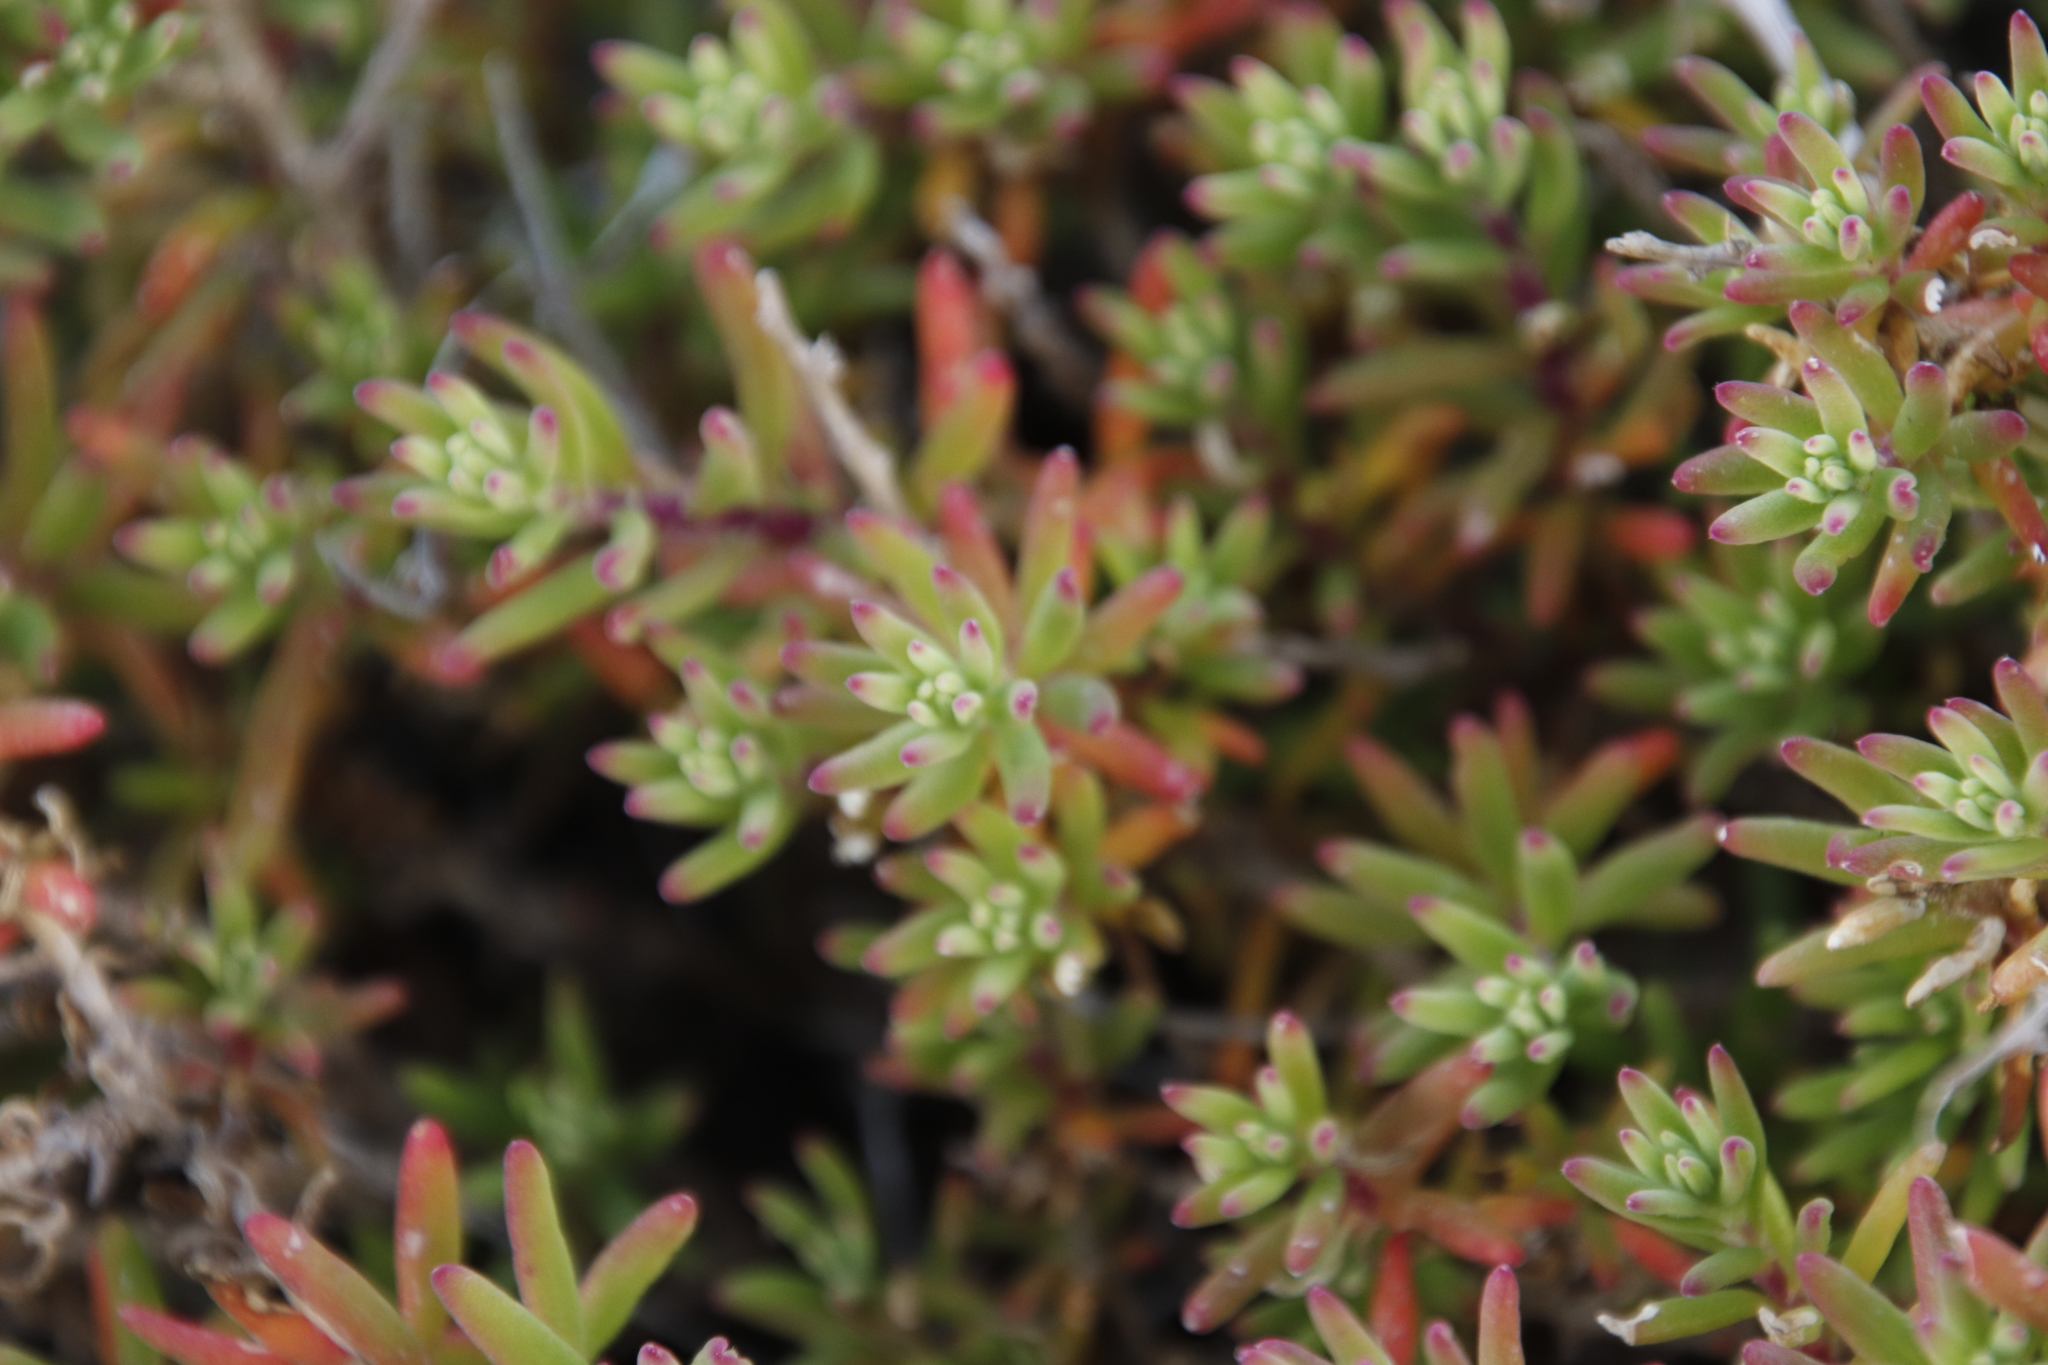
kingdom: Plantae
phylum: Tracheophyta
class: Magnoliopsida
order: Caryophyllales
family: Aizoaceae
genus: Tetragonia
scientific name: Tetragonia fruticosa
